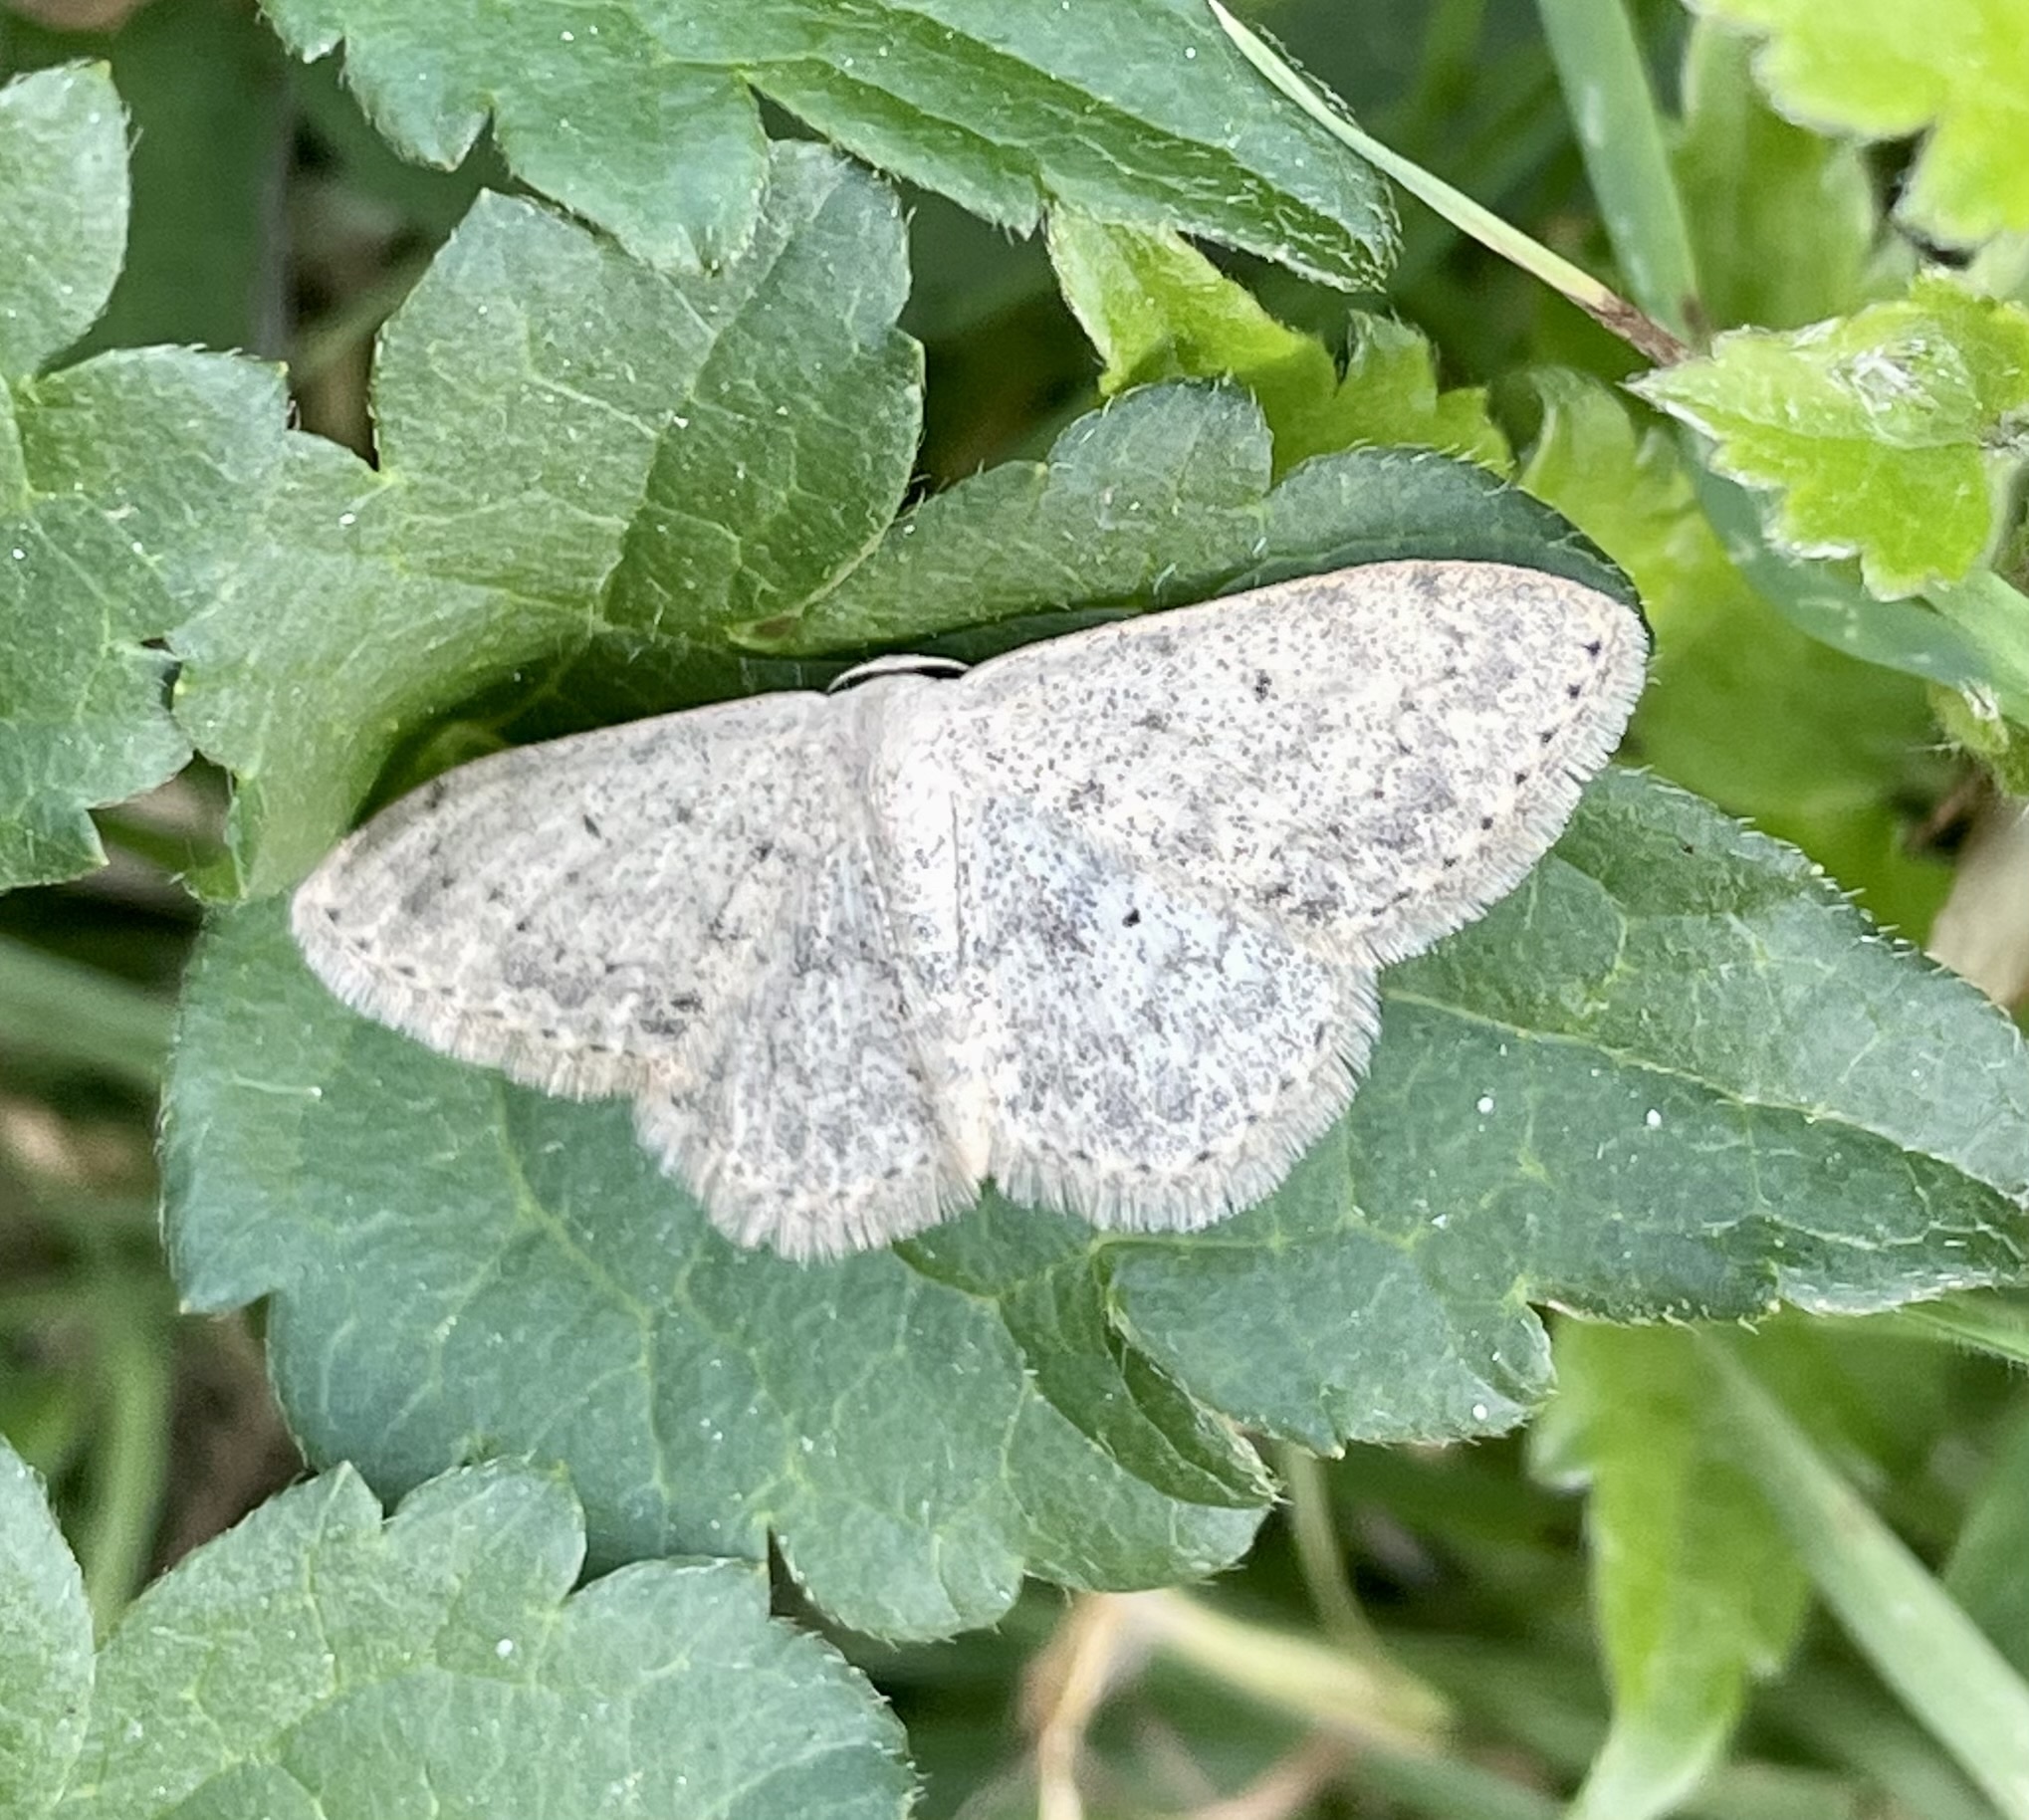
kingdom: Animalia
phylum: Arthropoda
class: Insecta
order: Lepidoptera
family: Geometridae
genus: Scopula
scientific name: Scopula marginepunctata
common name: Mullein wave
